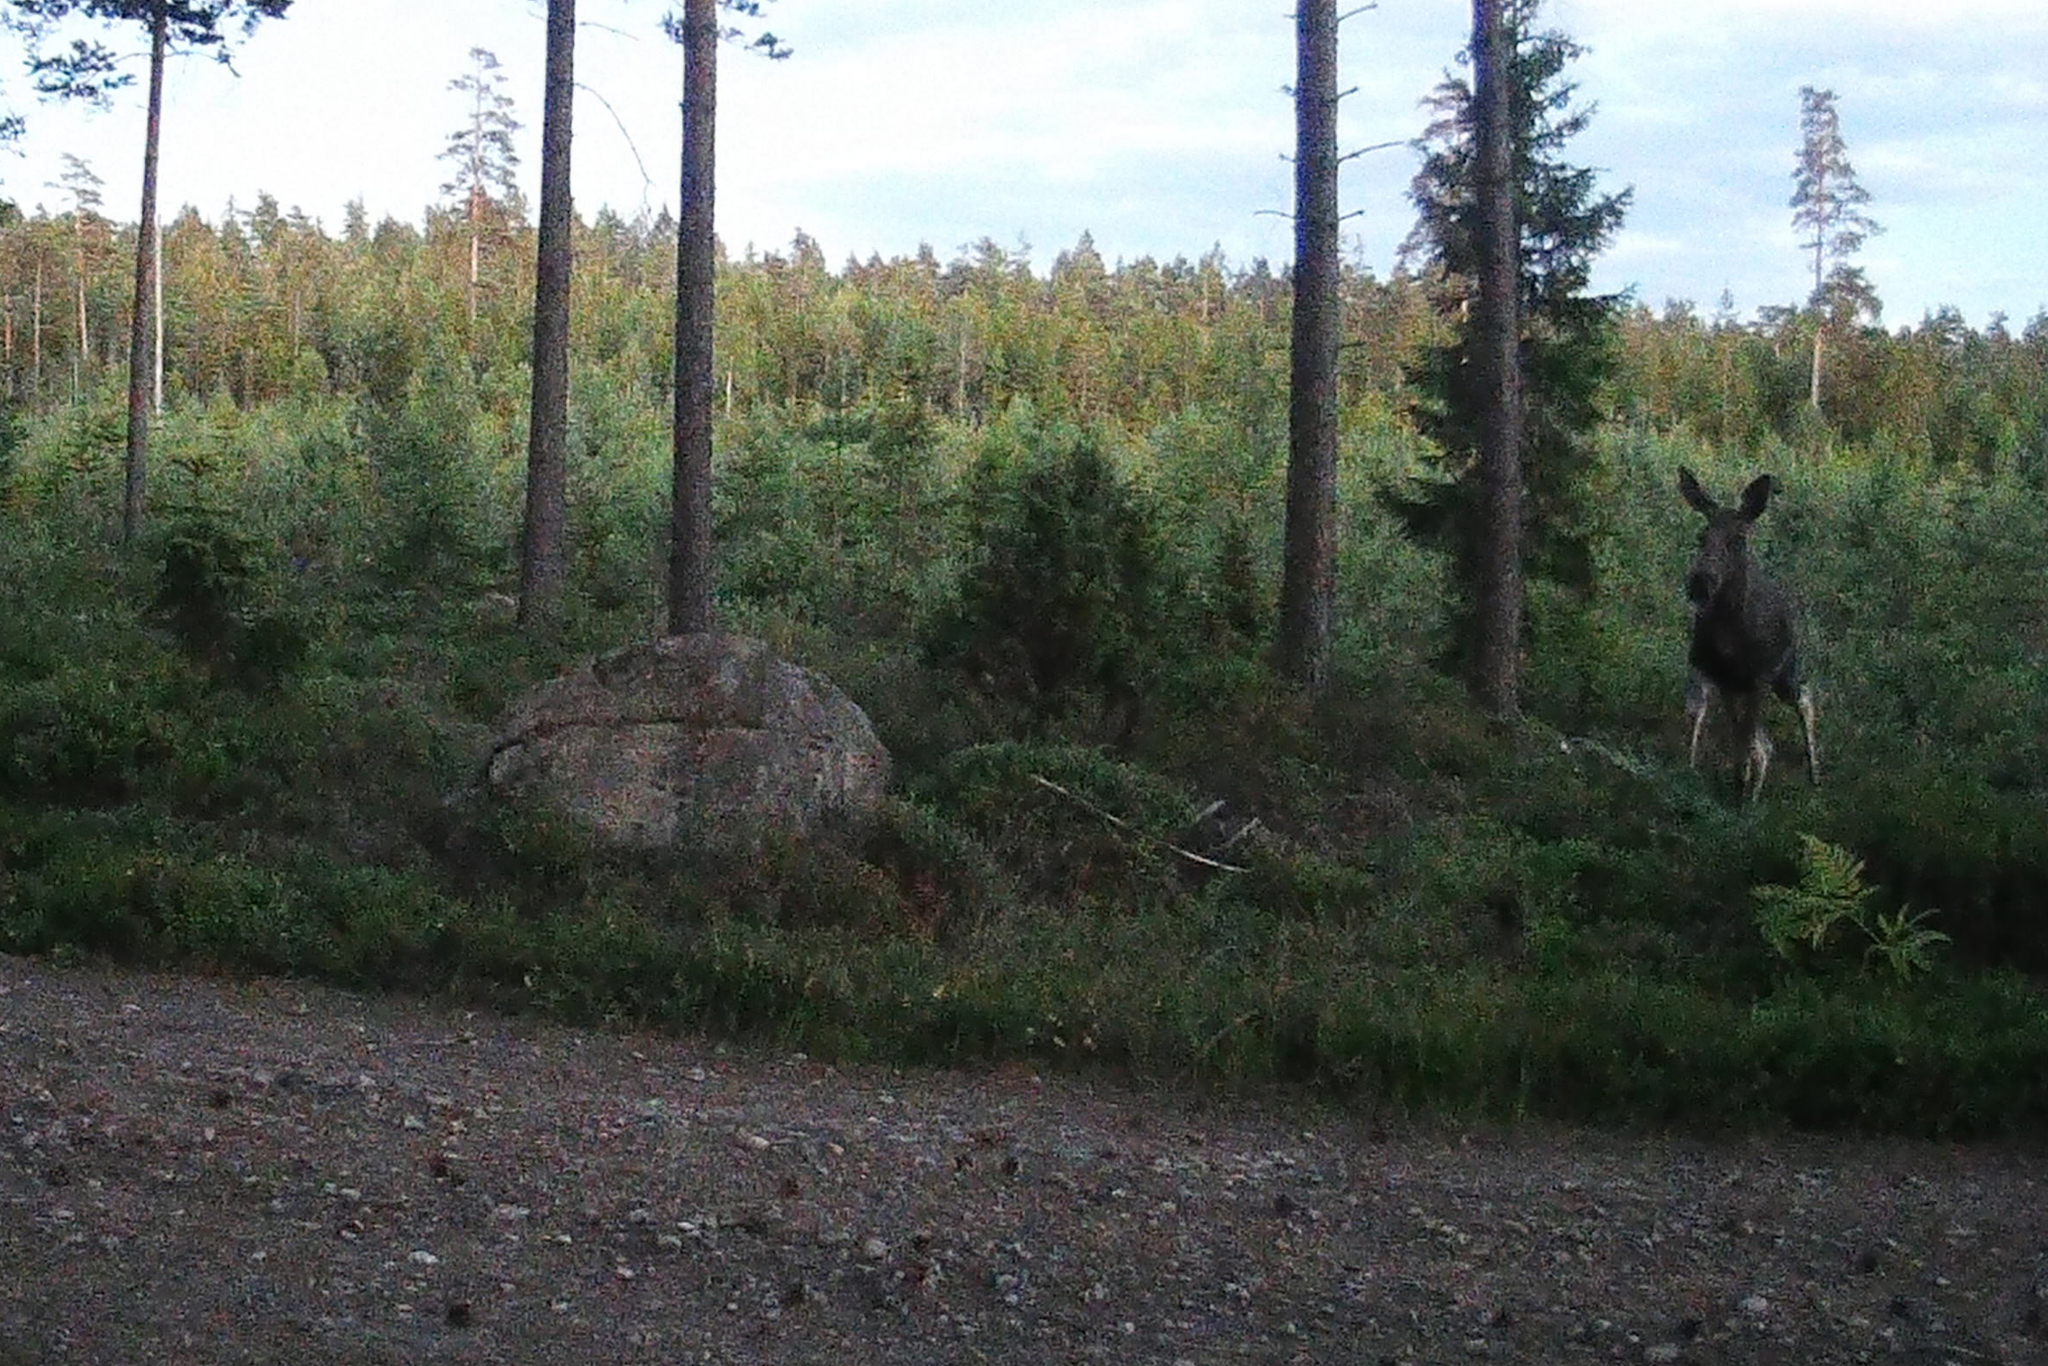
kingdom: Animalia
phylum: Chordata
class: Mammalia
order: Artiodactyla
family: Cervidae
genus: Alces
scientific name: Alces alces
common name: Moose
